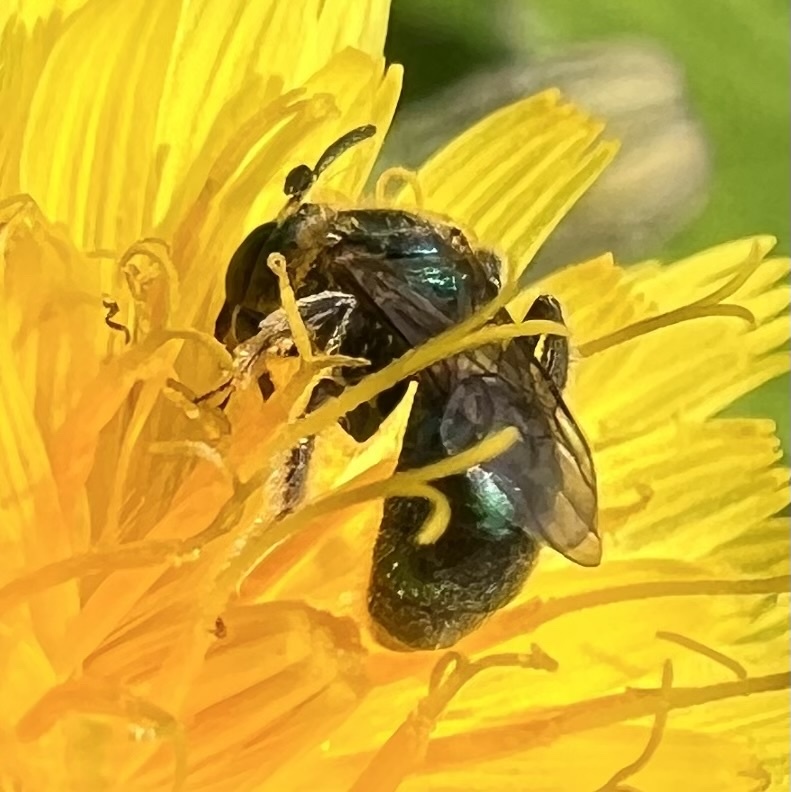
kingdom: Animalia
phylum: Arthropoda
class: Insecta
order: Hymenoptera
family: Halictidae
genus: Augochlorella
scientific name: Augochlorella aurata
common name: Golden sweat bee
